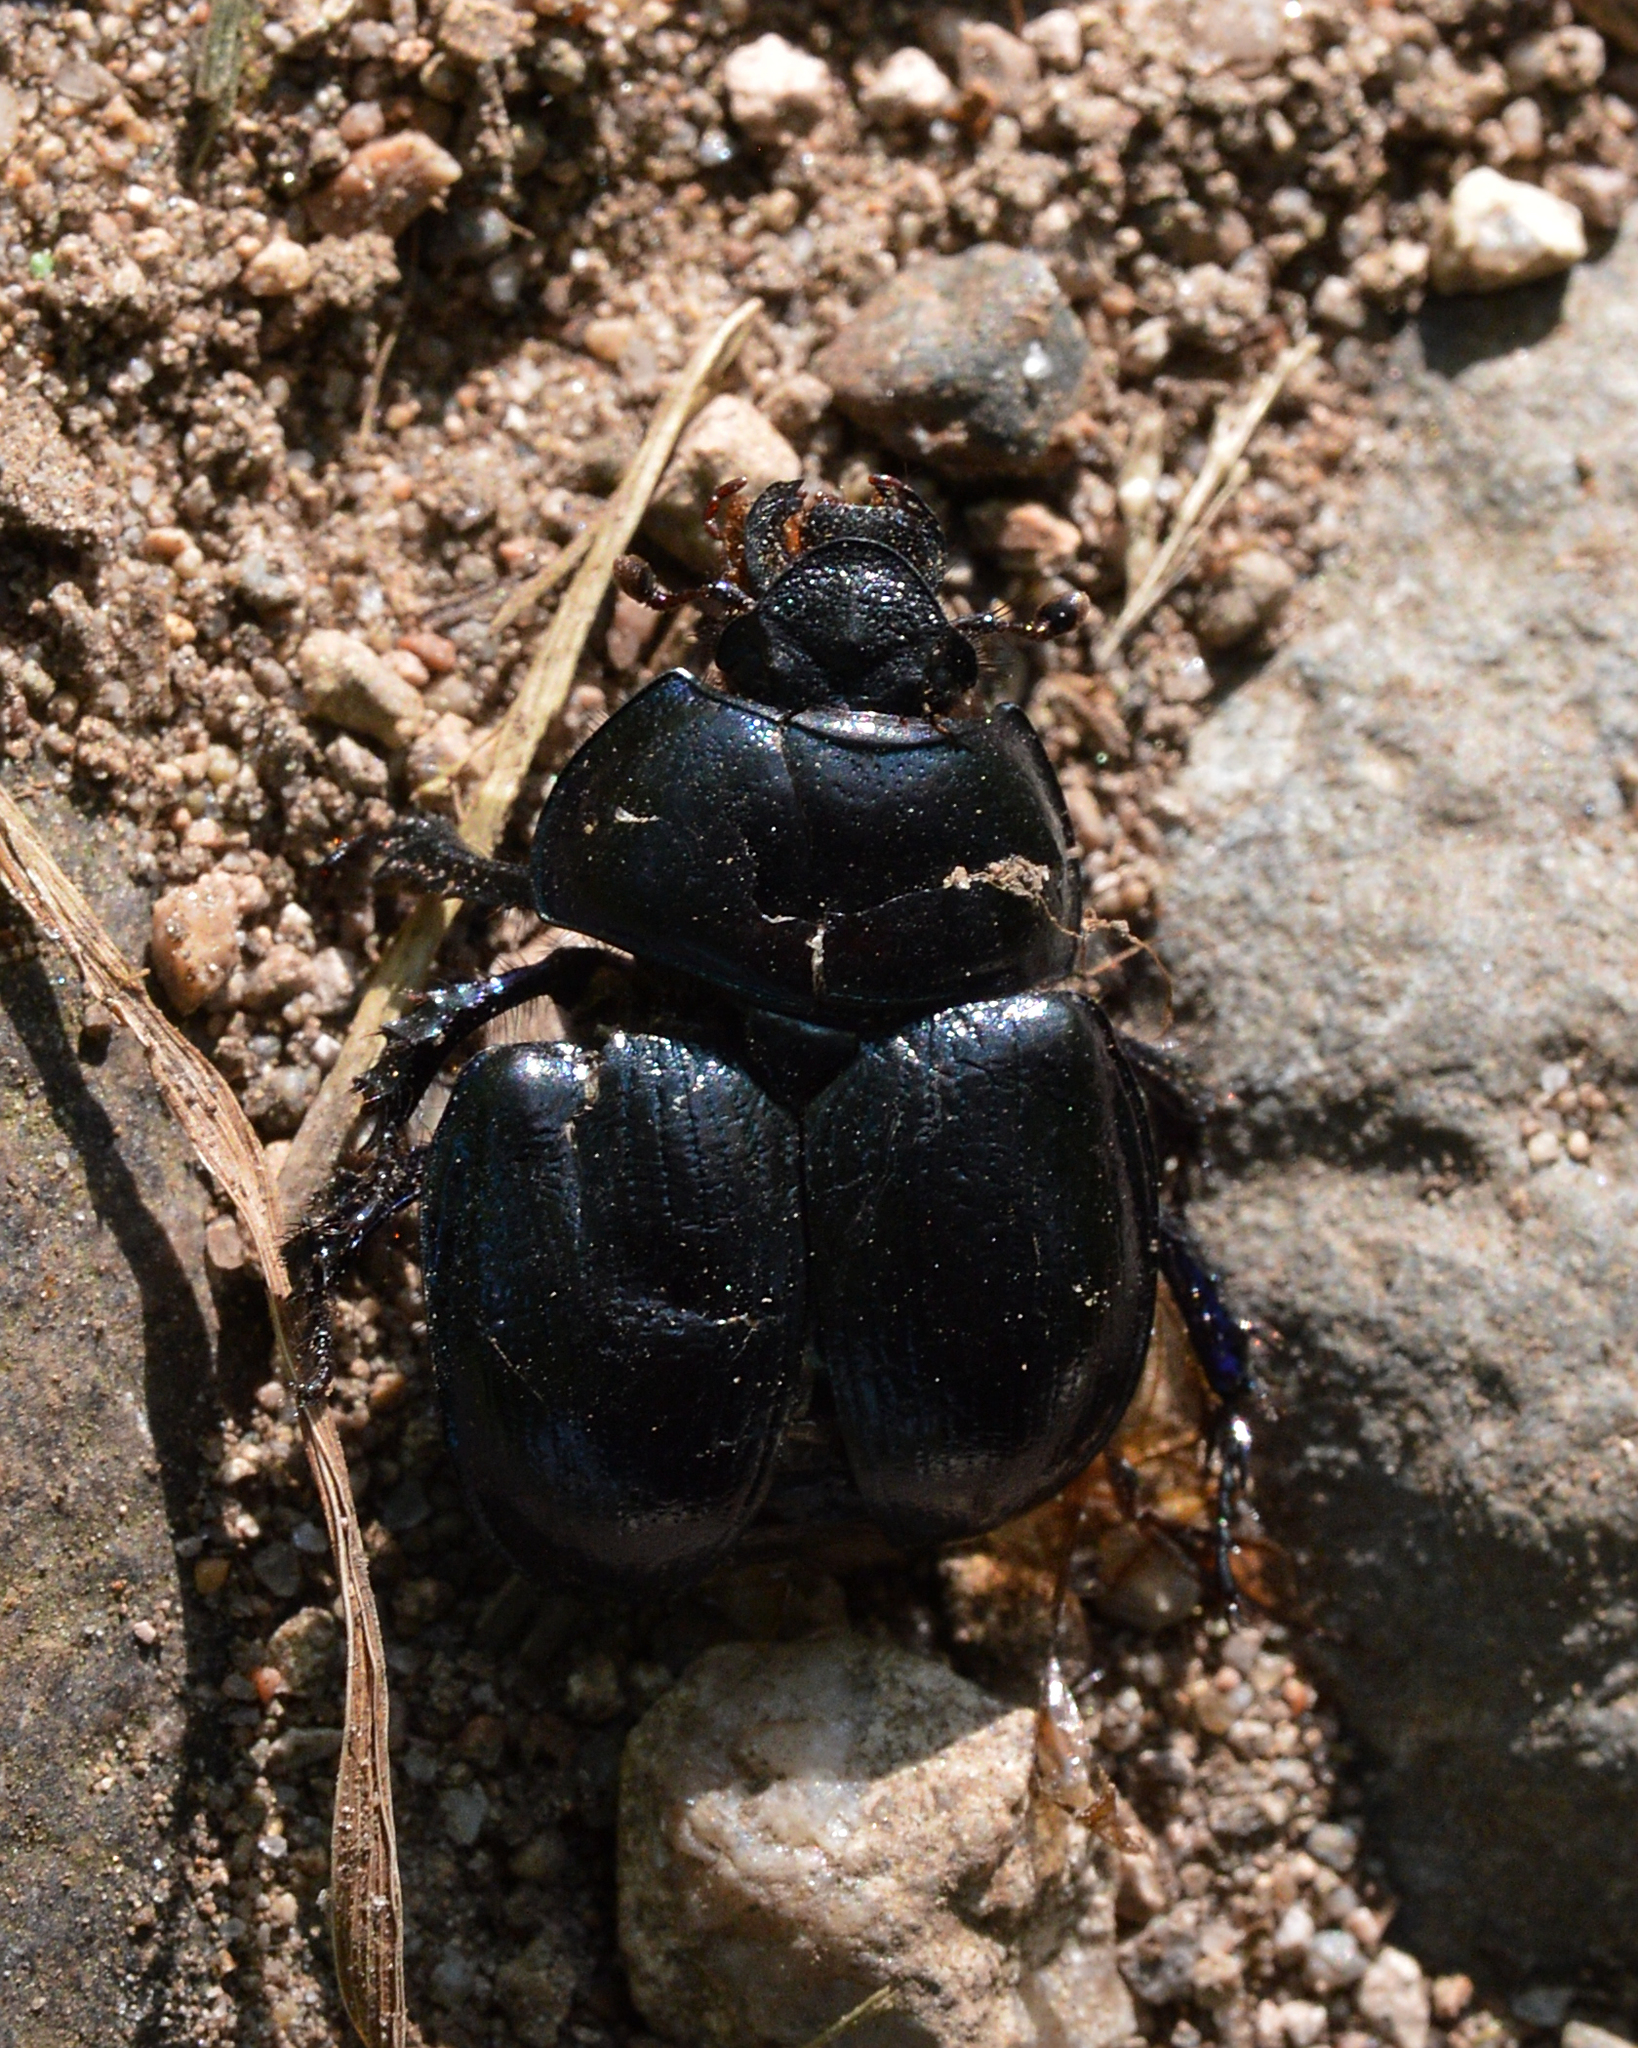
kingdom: Animalia
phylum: Arthropoda
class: Insecta
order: Coleoptera
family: Geotrupidae
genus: Anoplotrupes
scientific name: Anoplotrupes stercorosus
